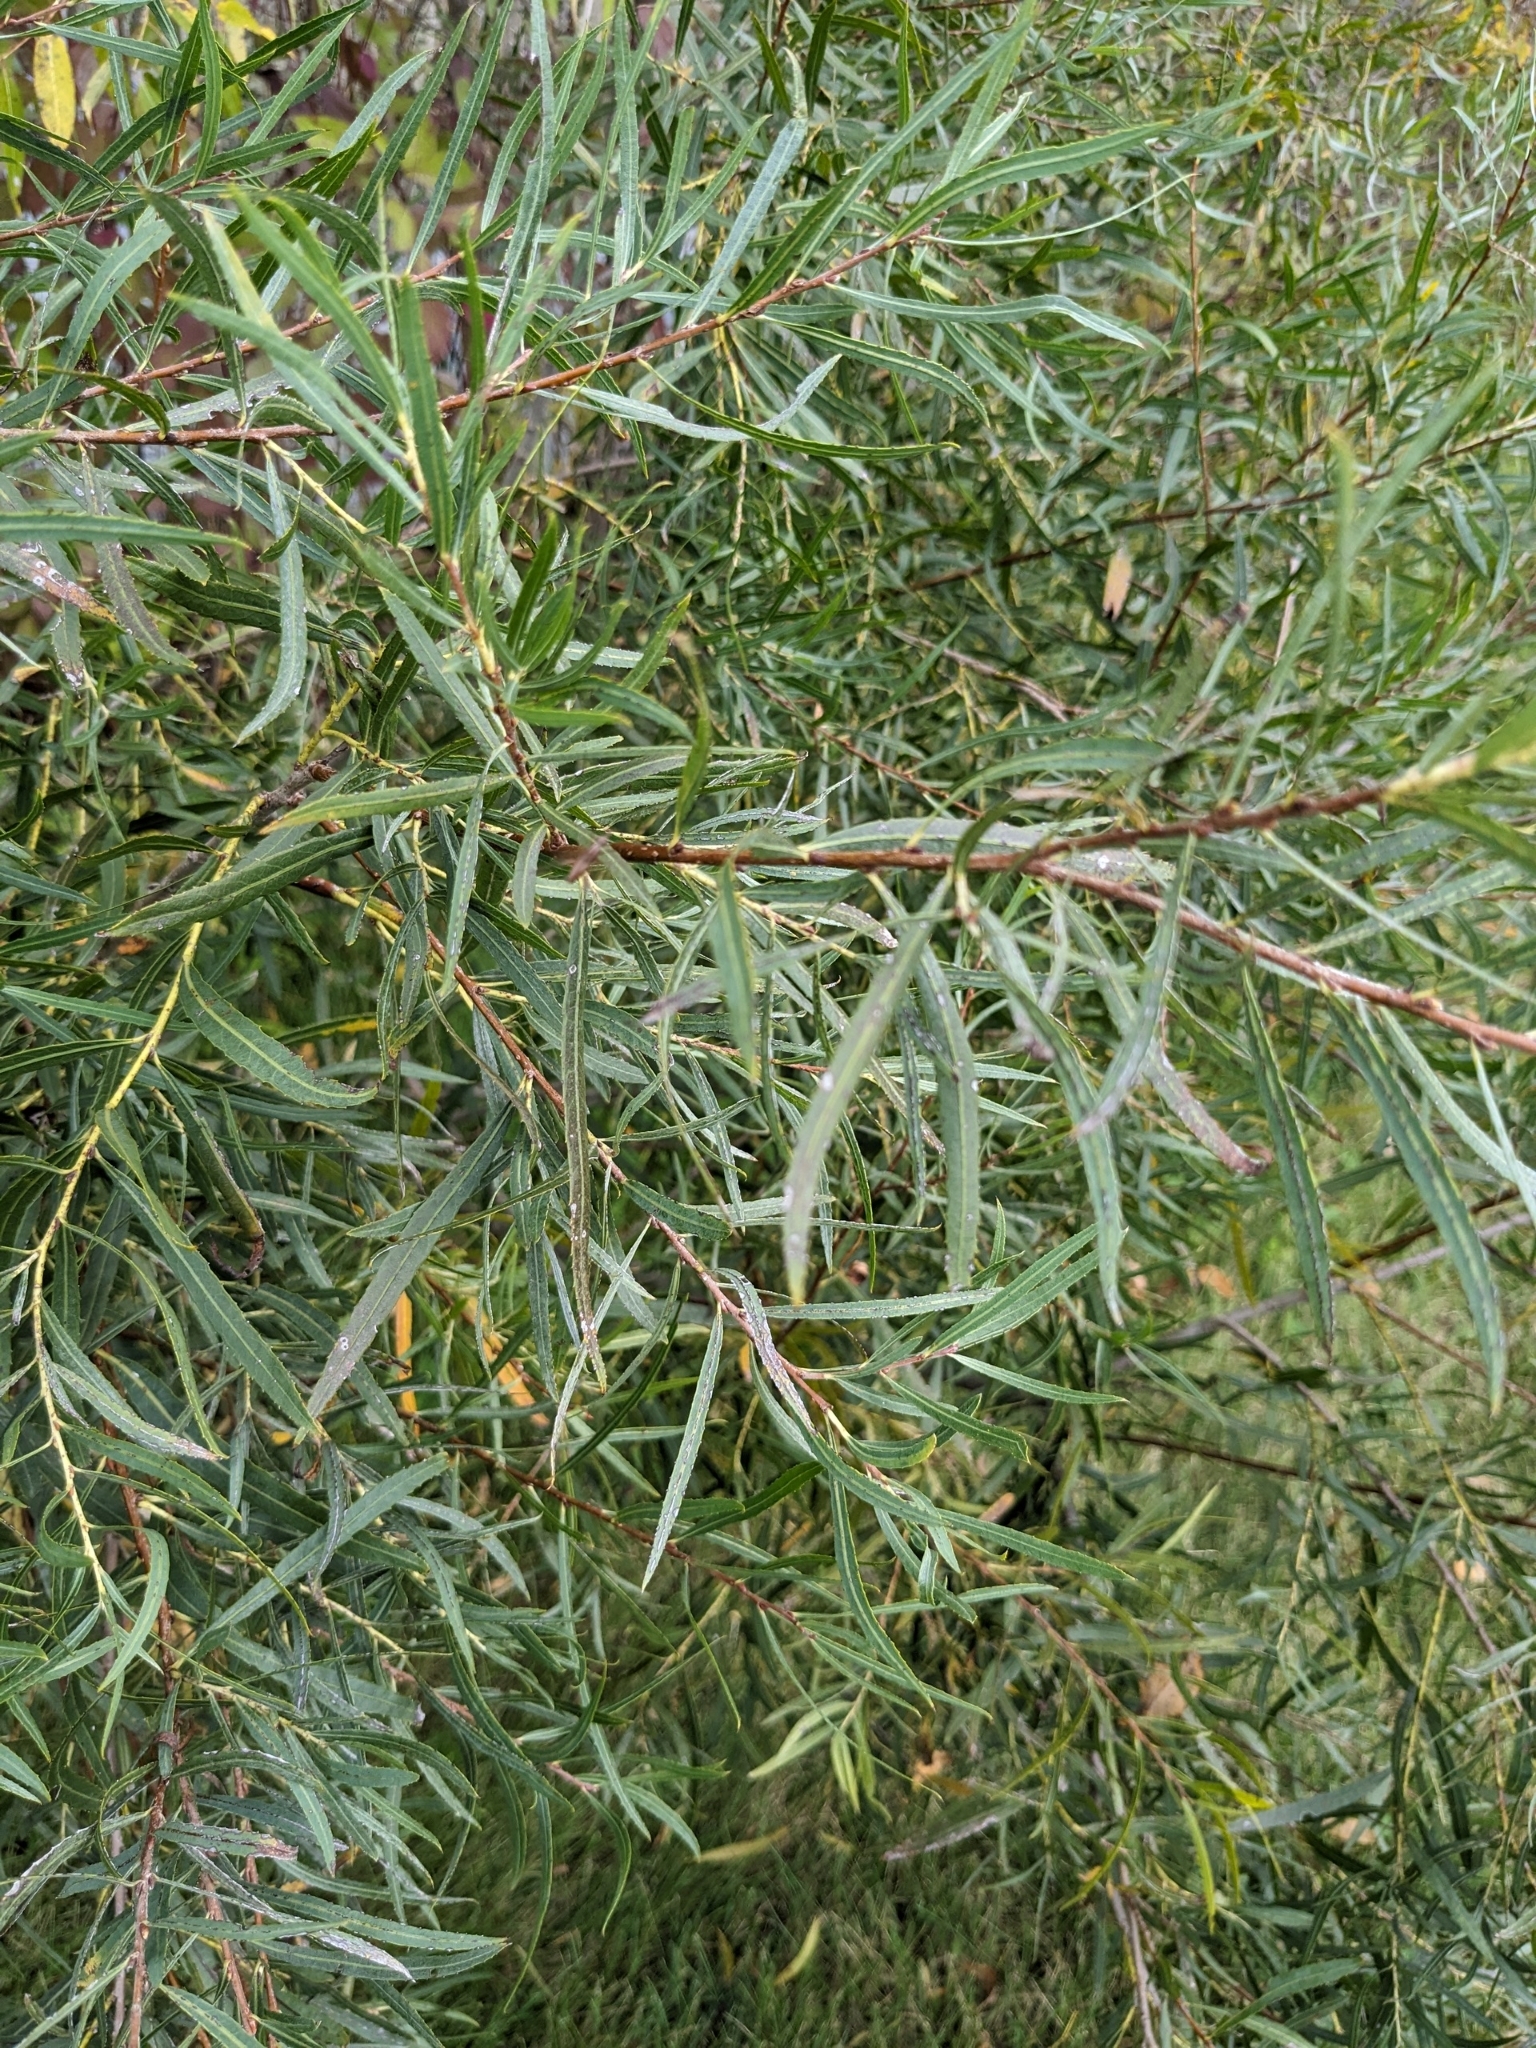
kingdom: Plantae
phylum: Tracheophyta
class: Magnoliopsida
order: Malpighiales
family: Salicaceae
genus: Salix
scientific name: Salix interior
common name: Sandbar willow
